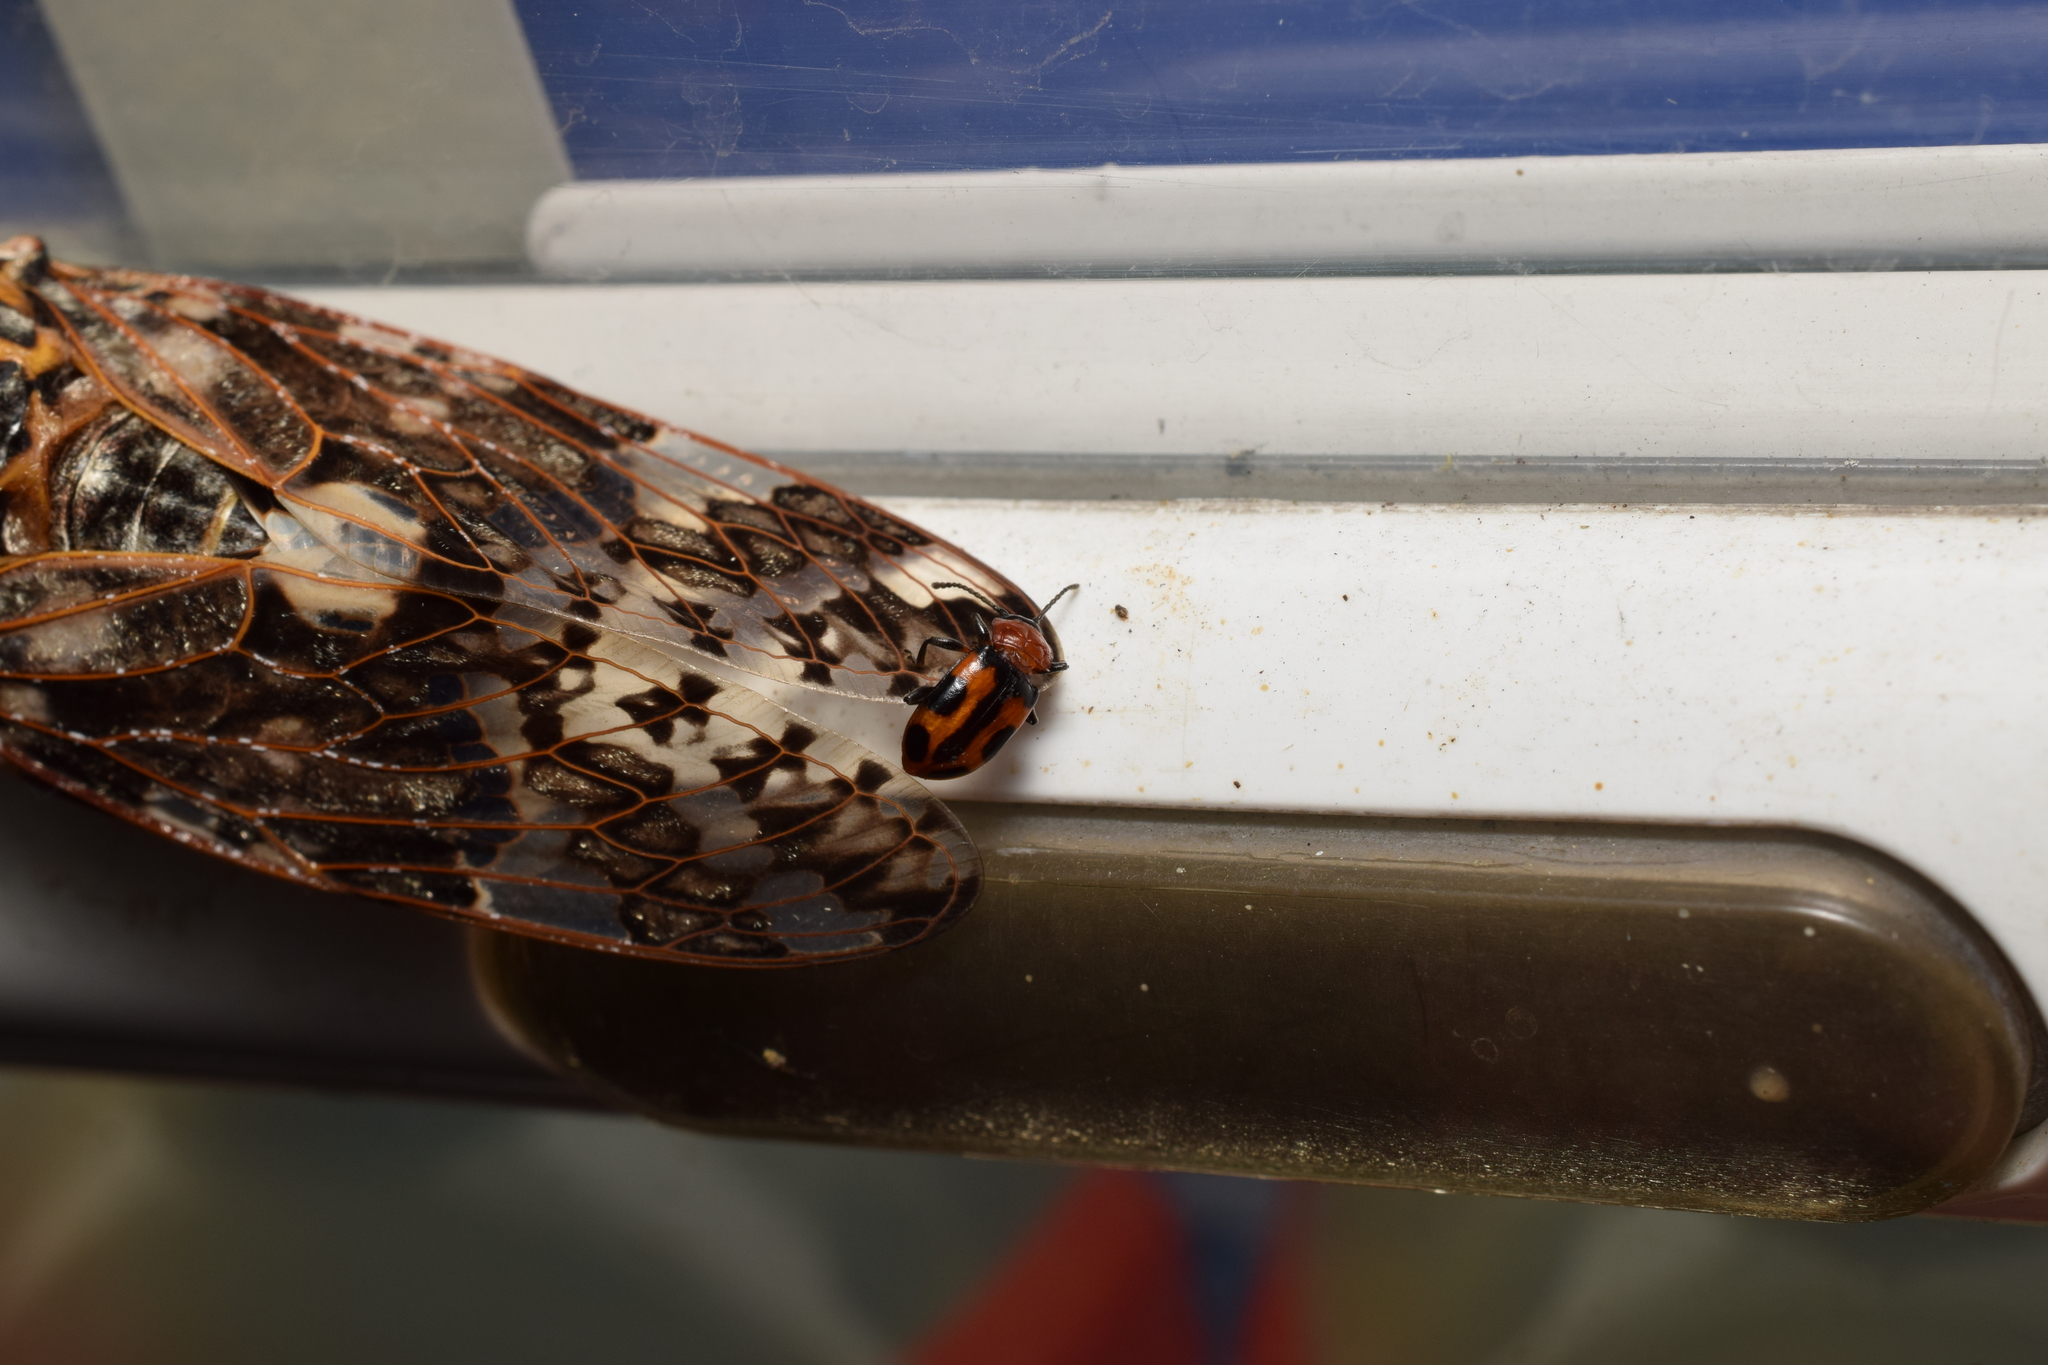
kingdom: Animalia
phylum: Arthropoda
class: Insecta
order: Hemiptera
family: Cicadidae
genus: Platypleura
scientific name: Platypleura kaempferi
